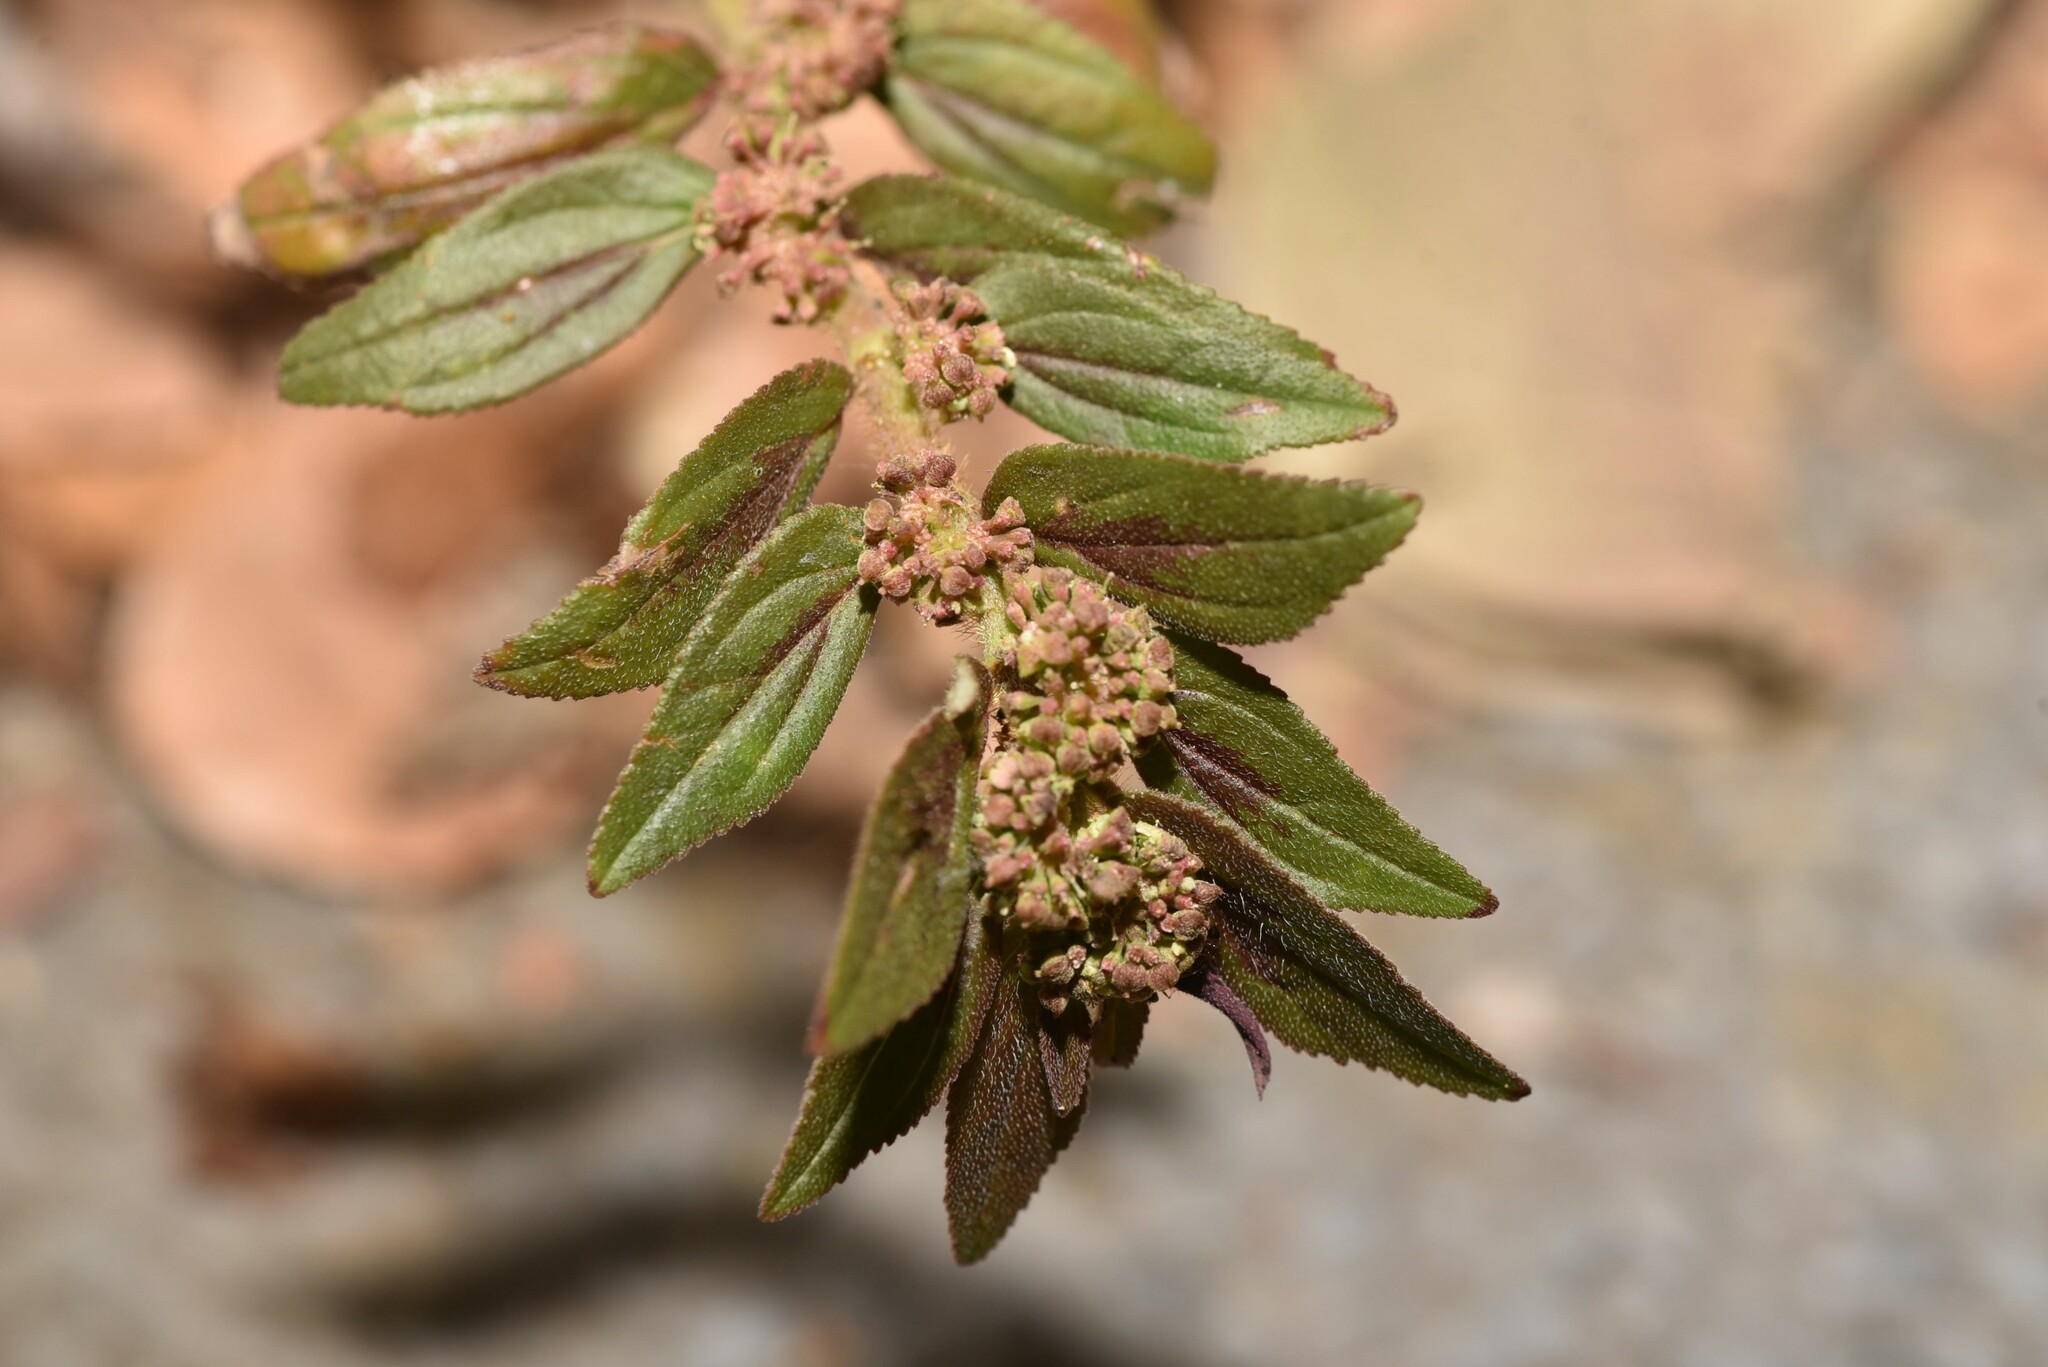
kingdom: Plantae
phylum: Tracheophyta
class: Magnoliopsida
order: Malpighiales
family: Euphorbiaceae
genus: Euphorbia
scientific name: Euphorbia hirta
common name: Pillpod sandmat
